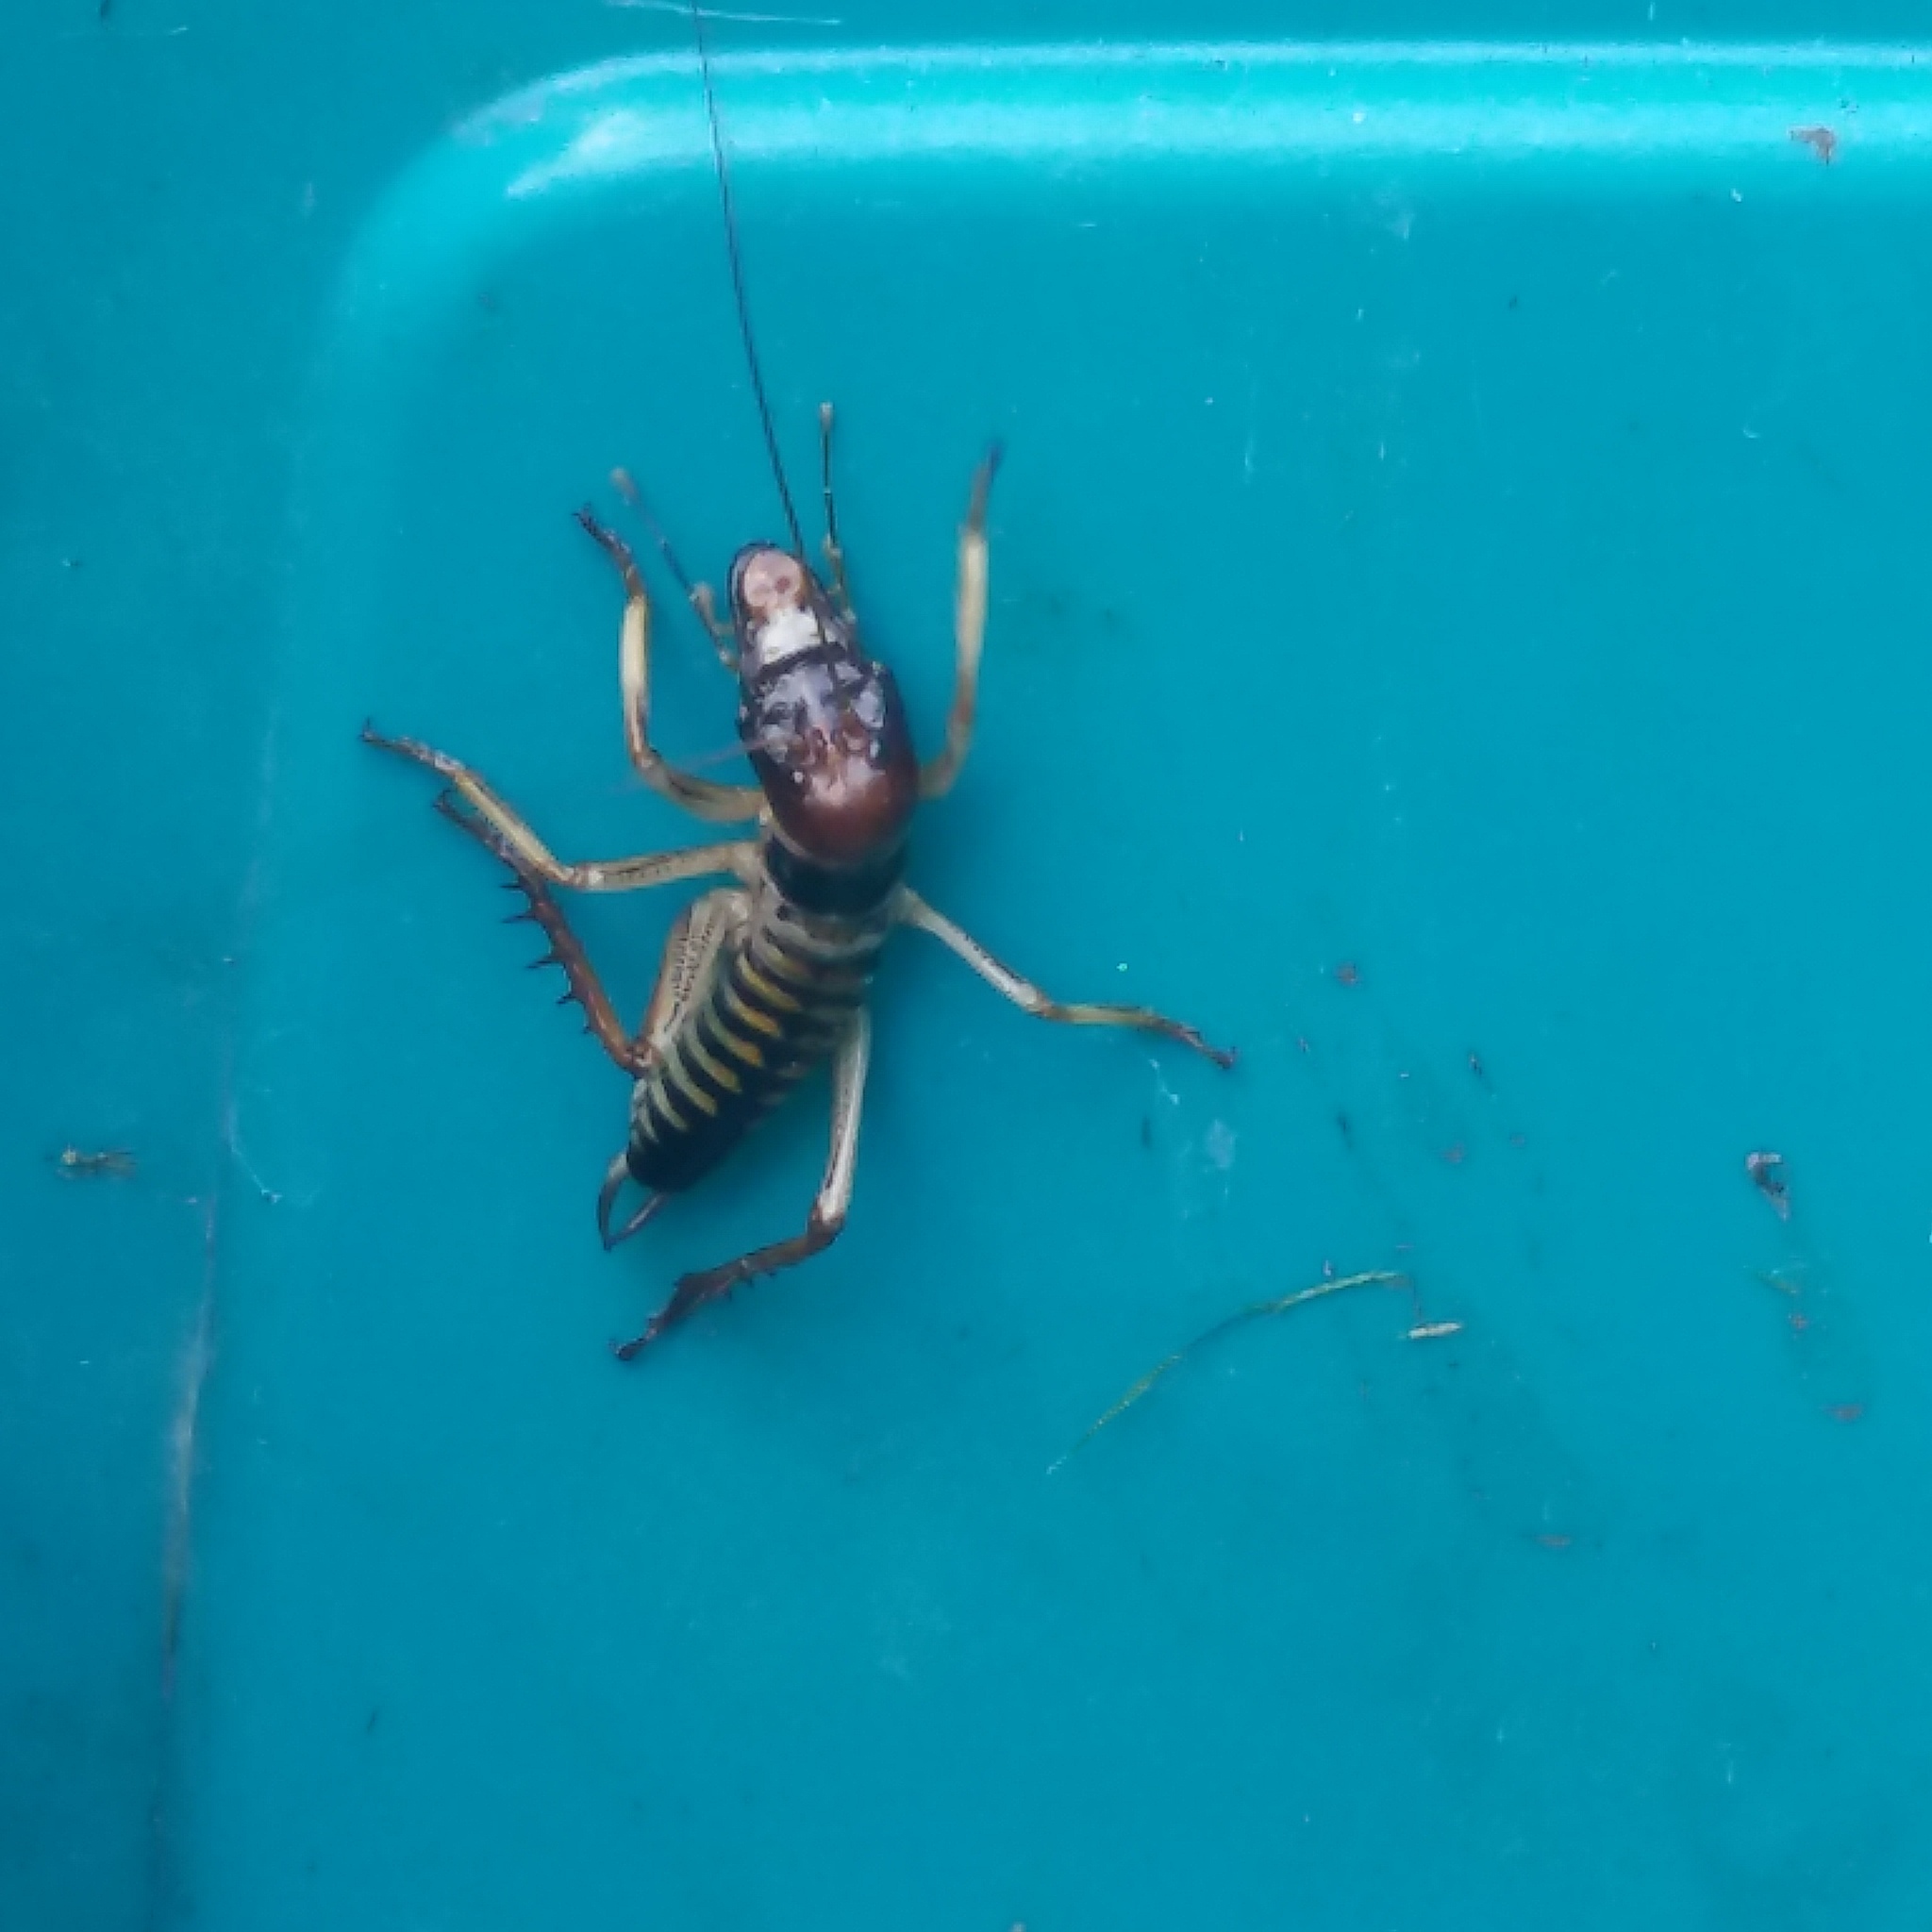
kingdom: Animalia
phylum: Arthropoda
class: Insecta
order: Orthoptera
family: Anostostomatidae
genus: Hemideina
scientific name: Hemideina crassidens
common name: Wellington tree weta
